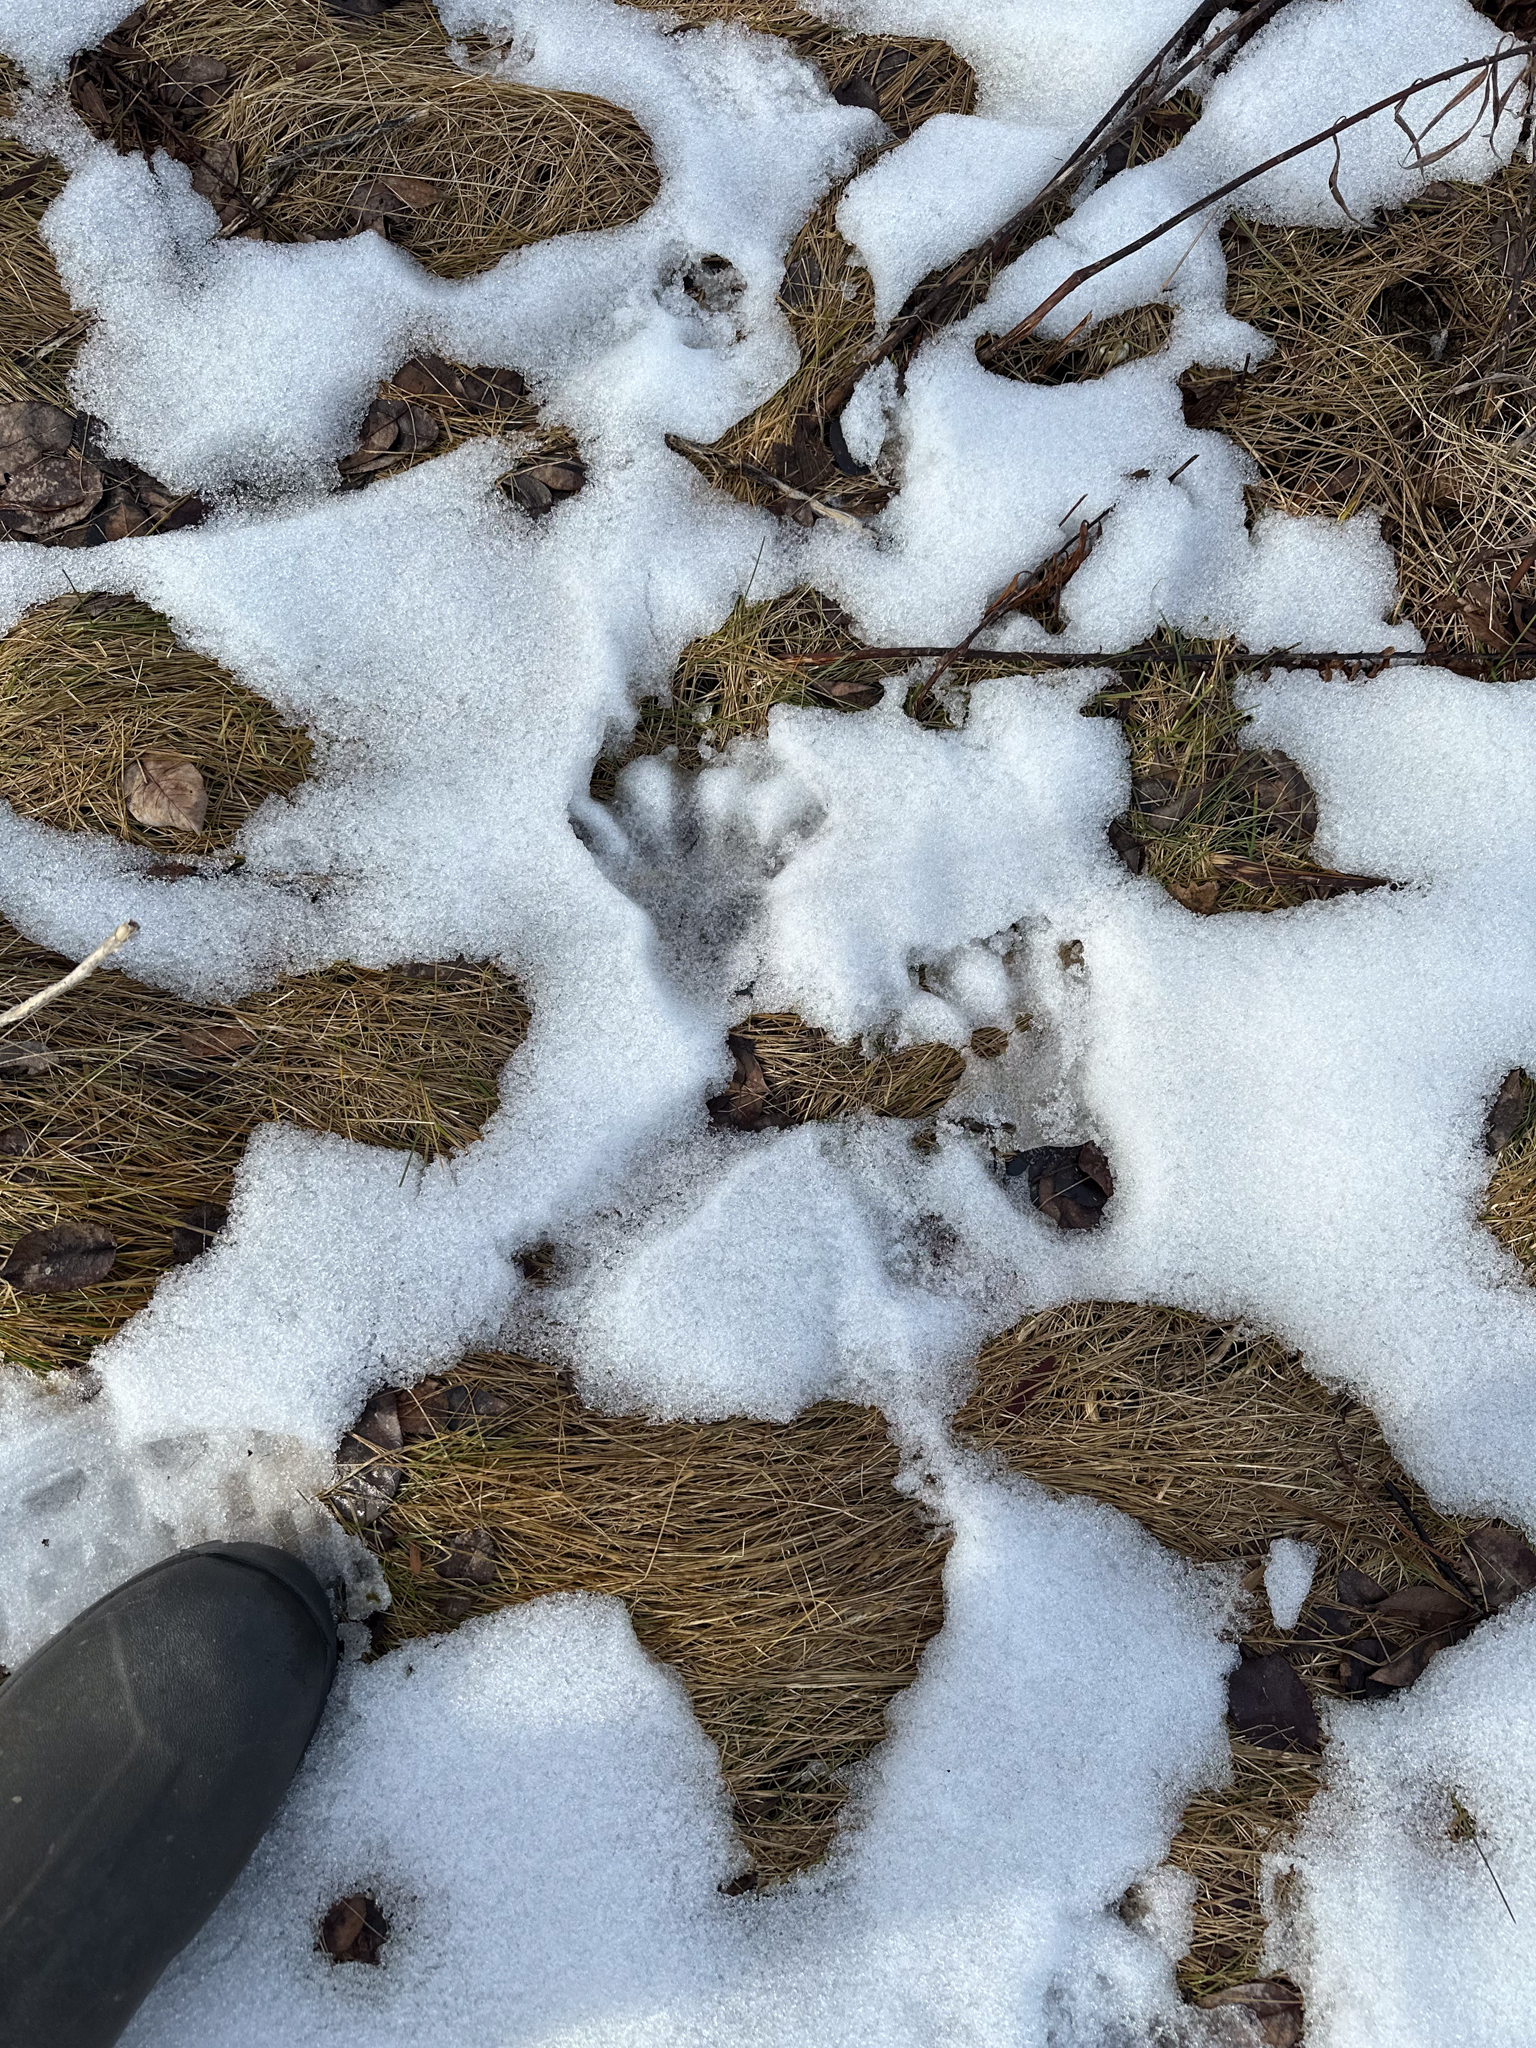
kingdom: Animalia
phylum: Chordata
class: Mammalia
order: Rodentia
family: Castoridae
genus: Castor
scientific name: Castor canadensis
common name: American beaver
